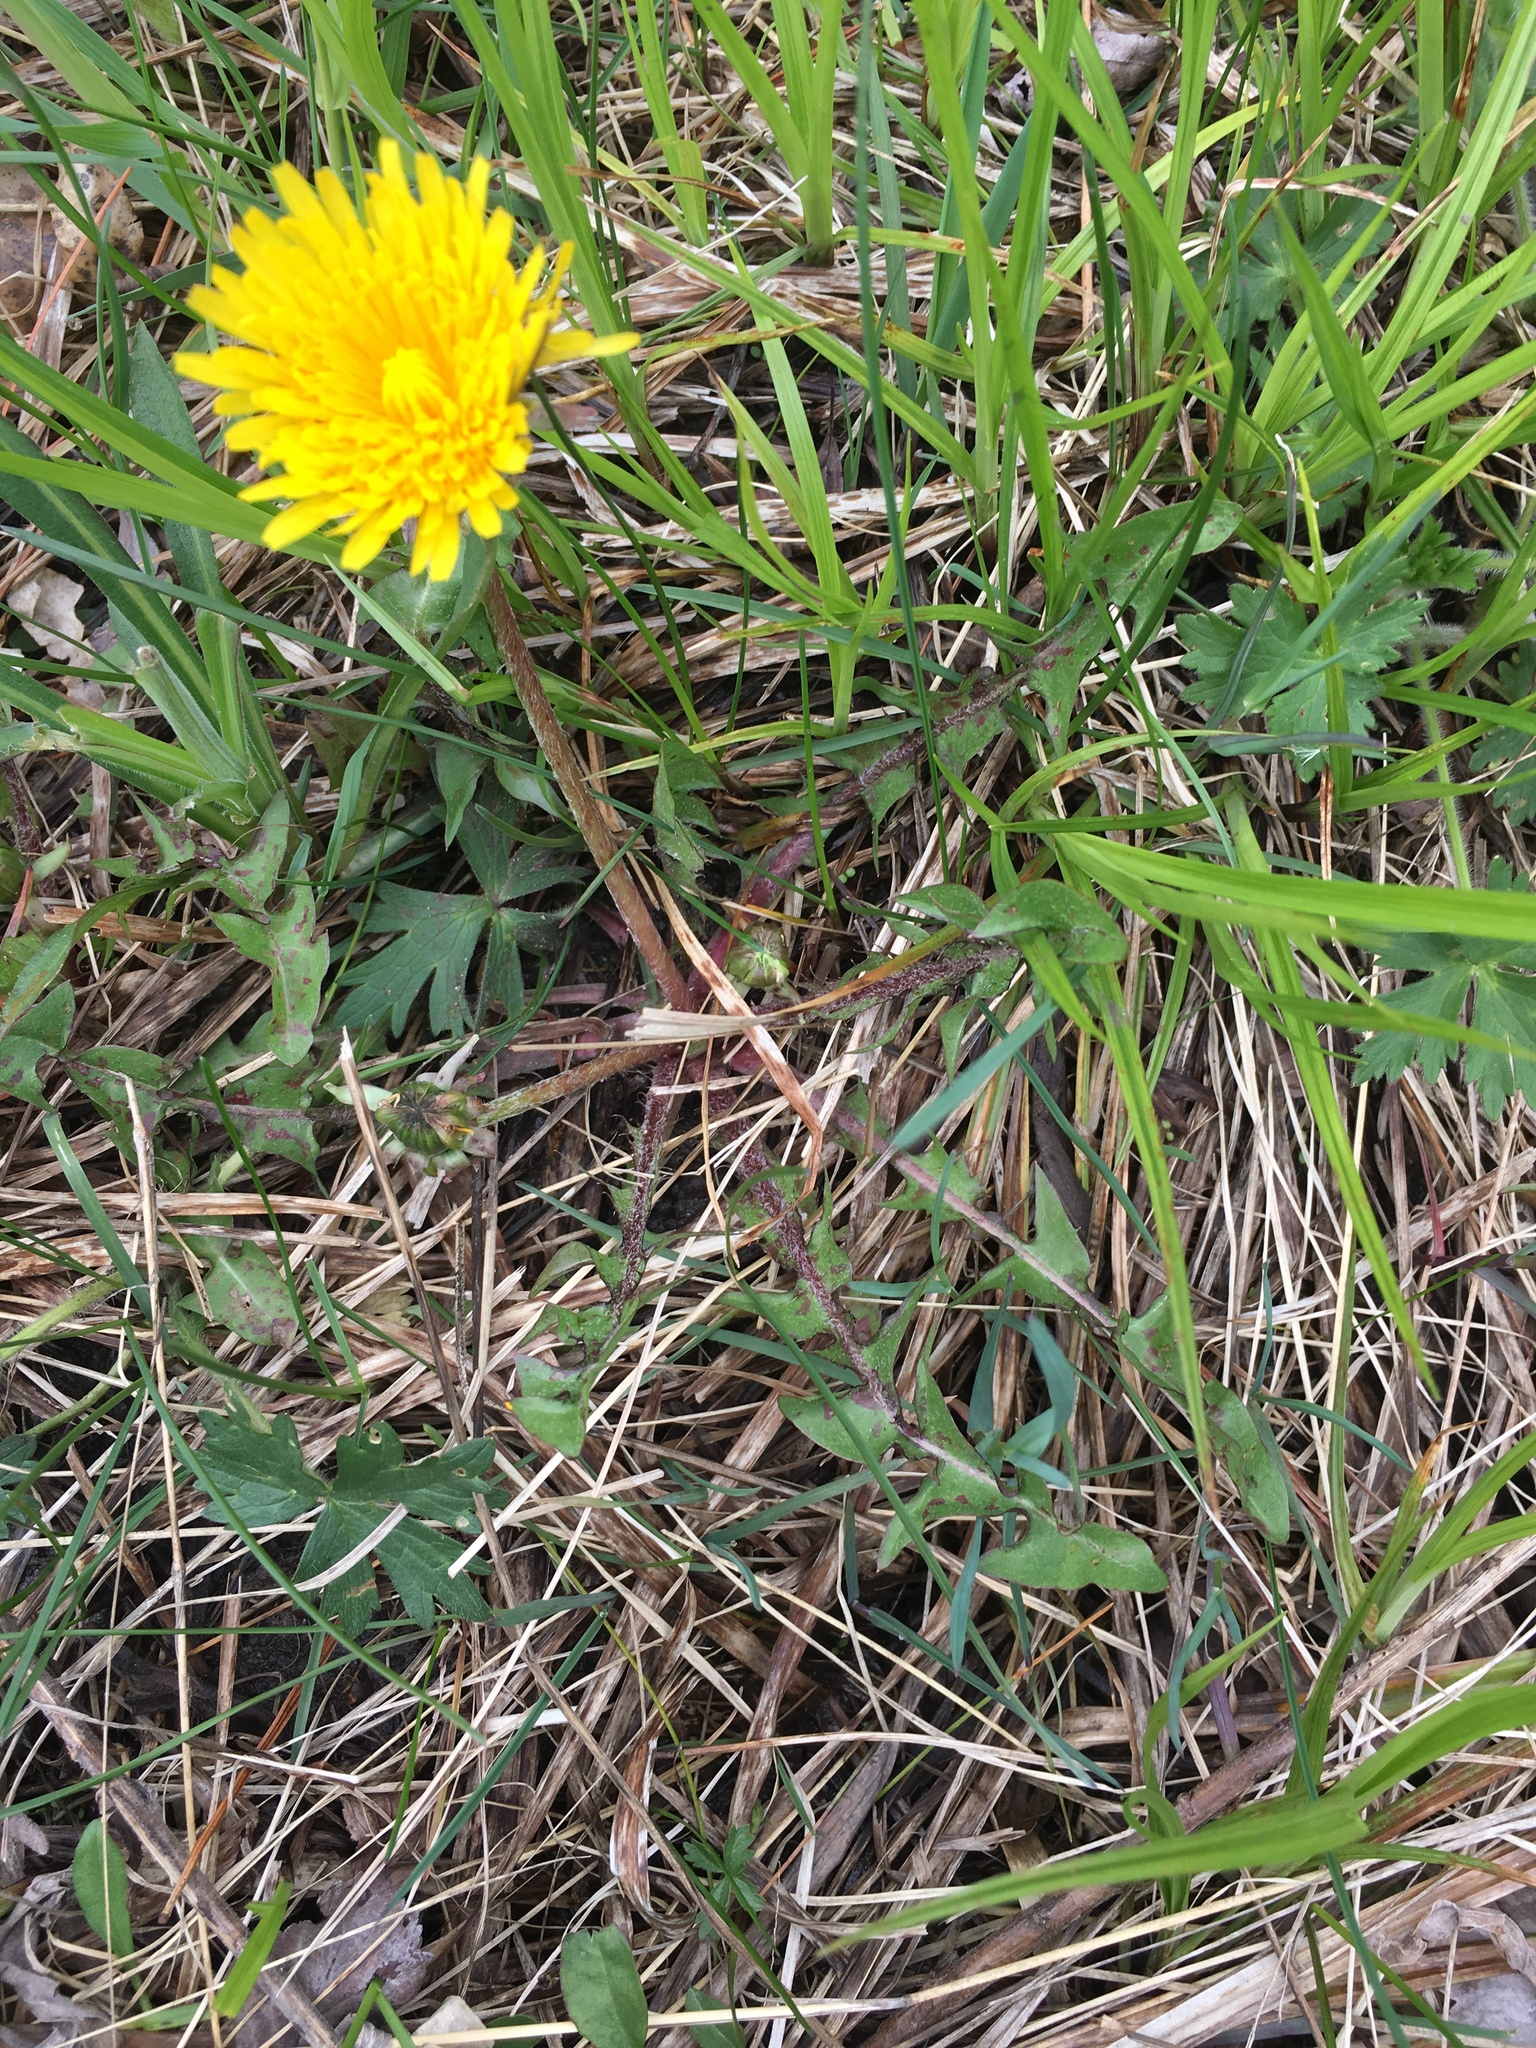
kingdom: Plantae
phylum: Tracheophyta
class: Magnoliopsida
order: Asterales
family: Asteraceae
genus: Taraxacum
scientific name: Taraxacum officinale
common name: Common dandelion
